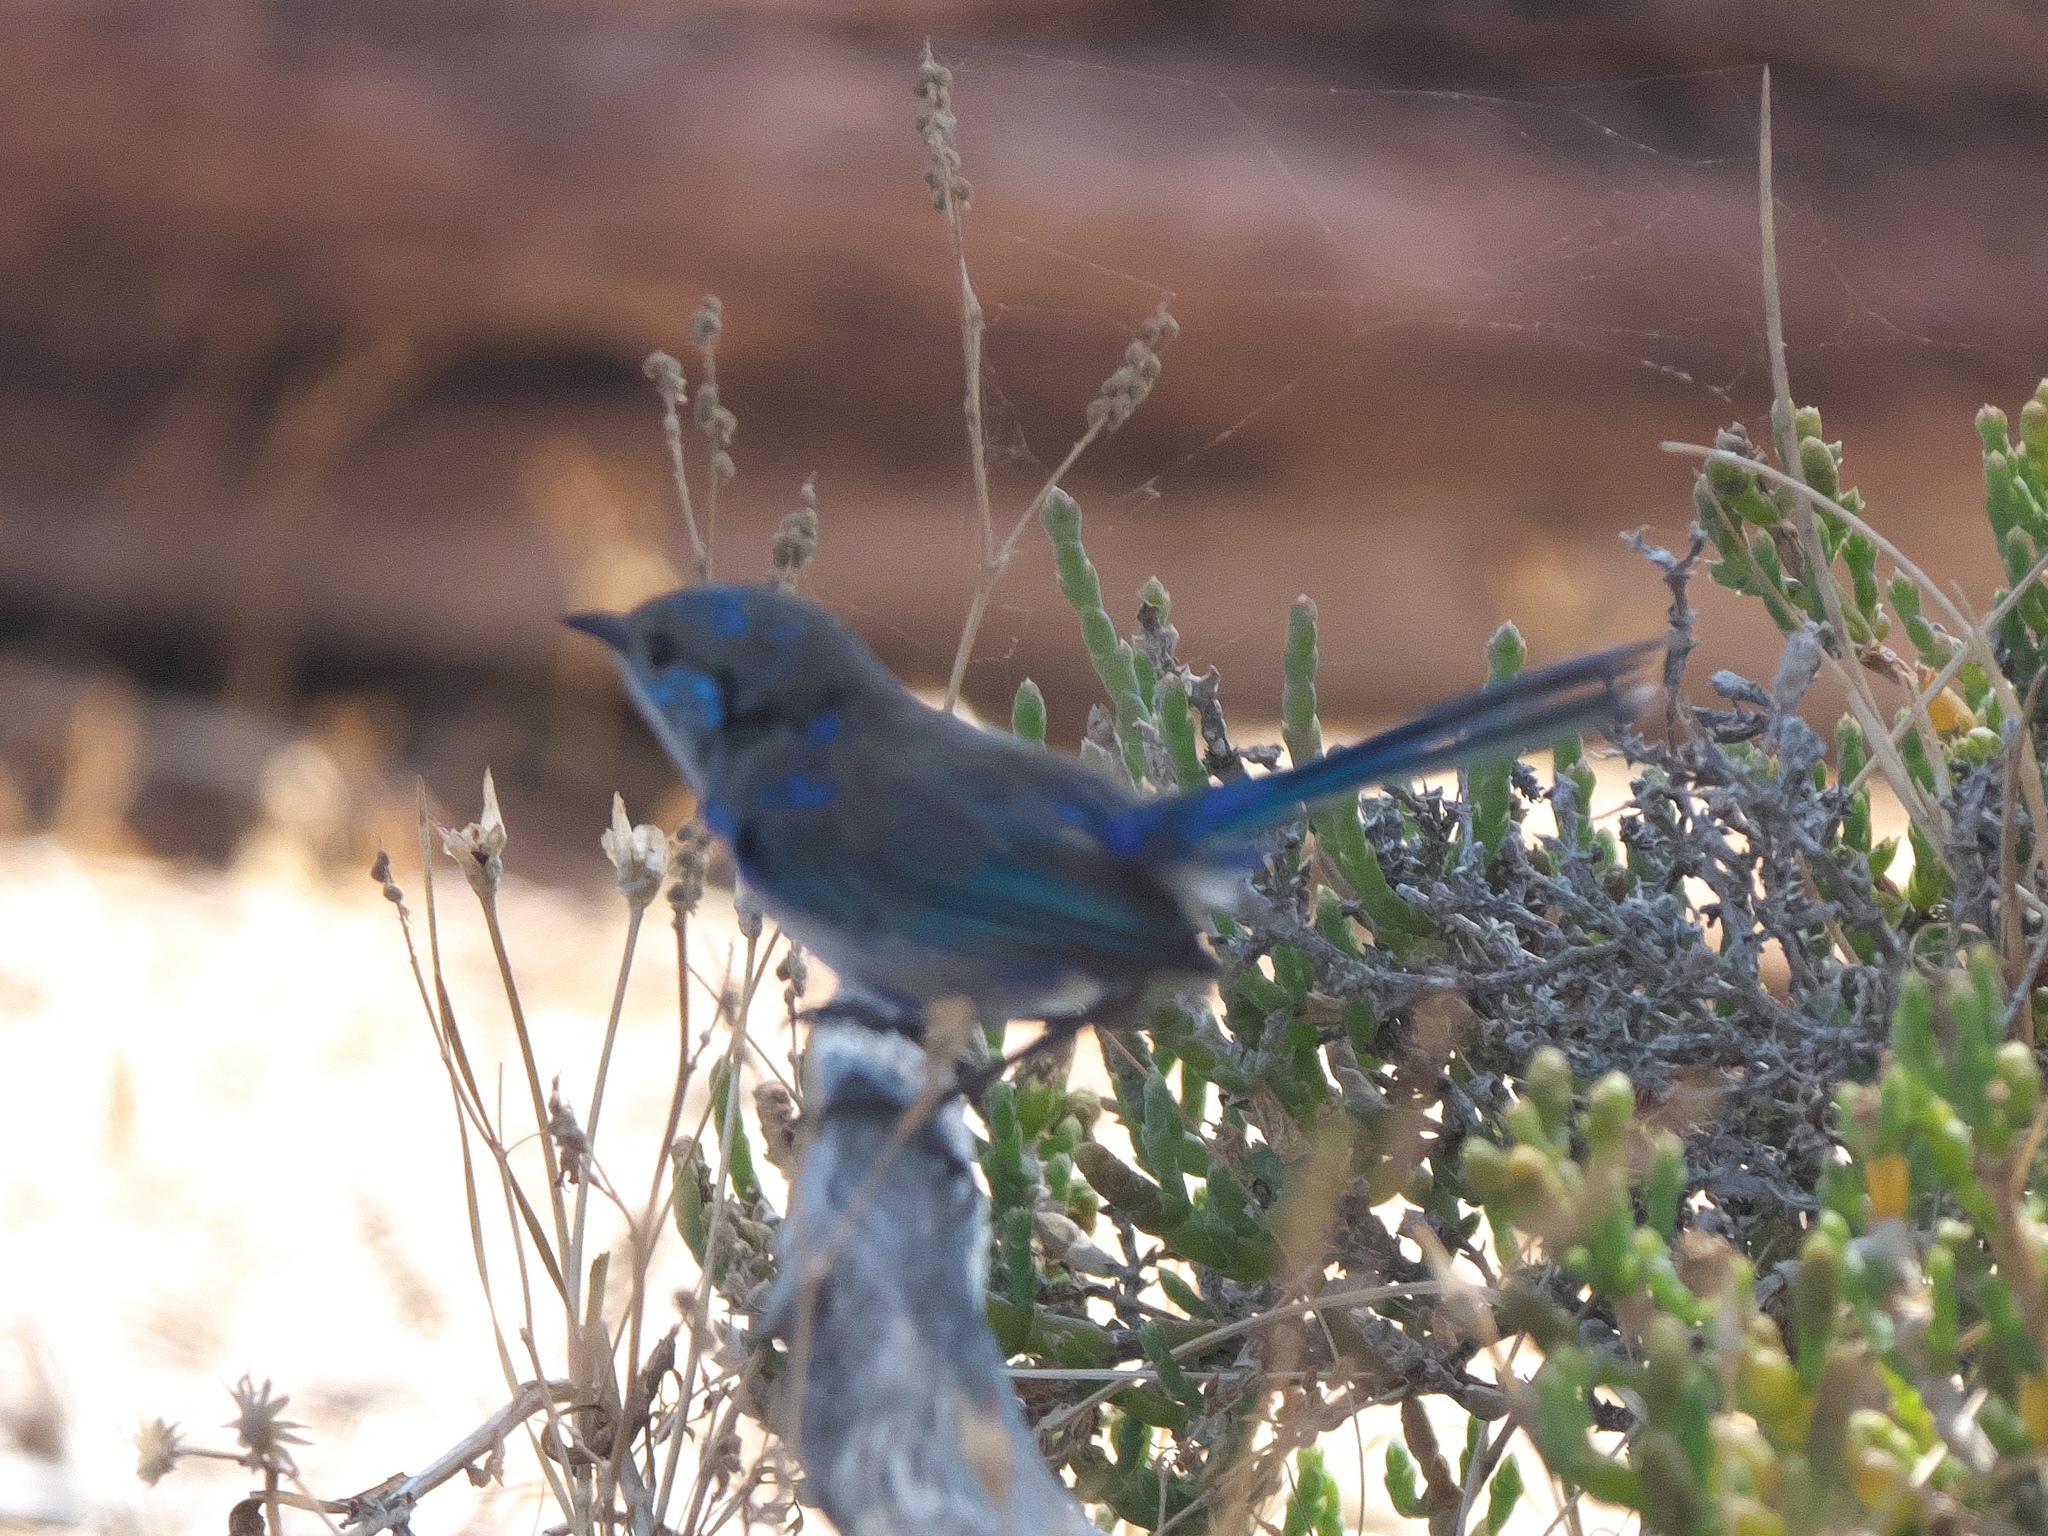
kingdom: Animalia
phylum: Chordata
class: Aves
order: Passeriformes
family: Maluridae
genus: Malurus
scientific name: Malurus splendens
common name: Splendid fairywren
